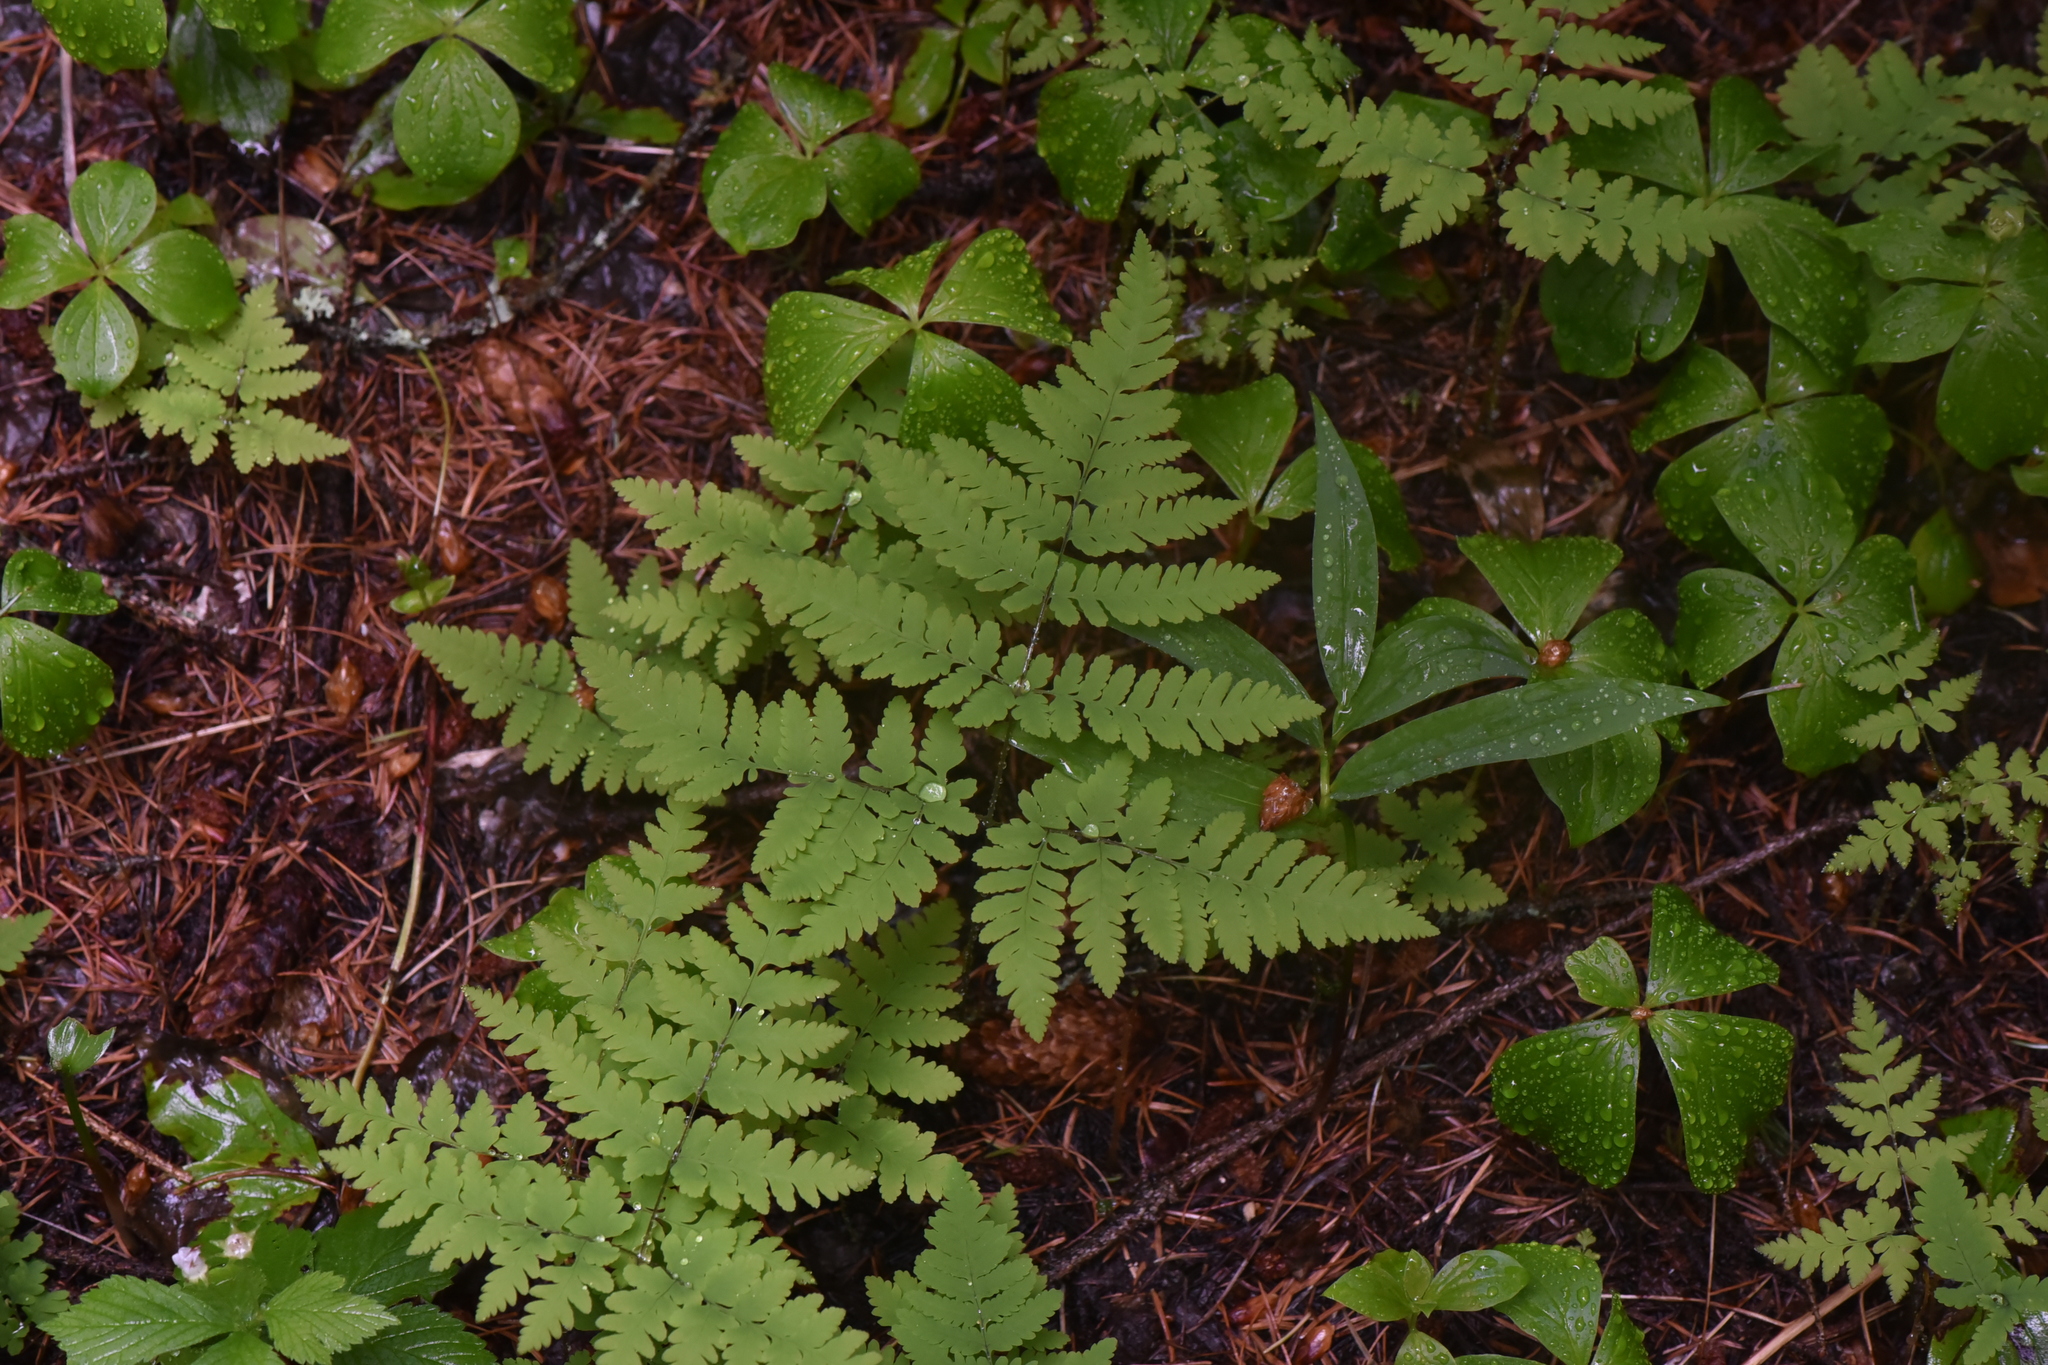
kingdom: Plantae
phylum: Tracheophyta
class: Polypodiopsida
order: Polypodiales
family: Cystopteridaceae
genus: Gymnocarpium
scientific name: Gymnocarpium disjunctum
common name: Western oak fern
